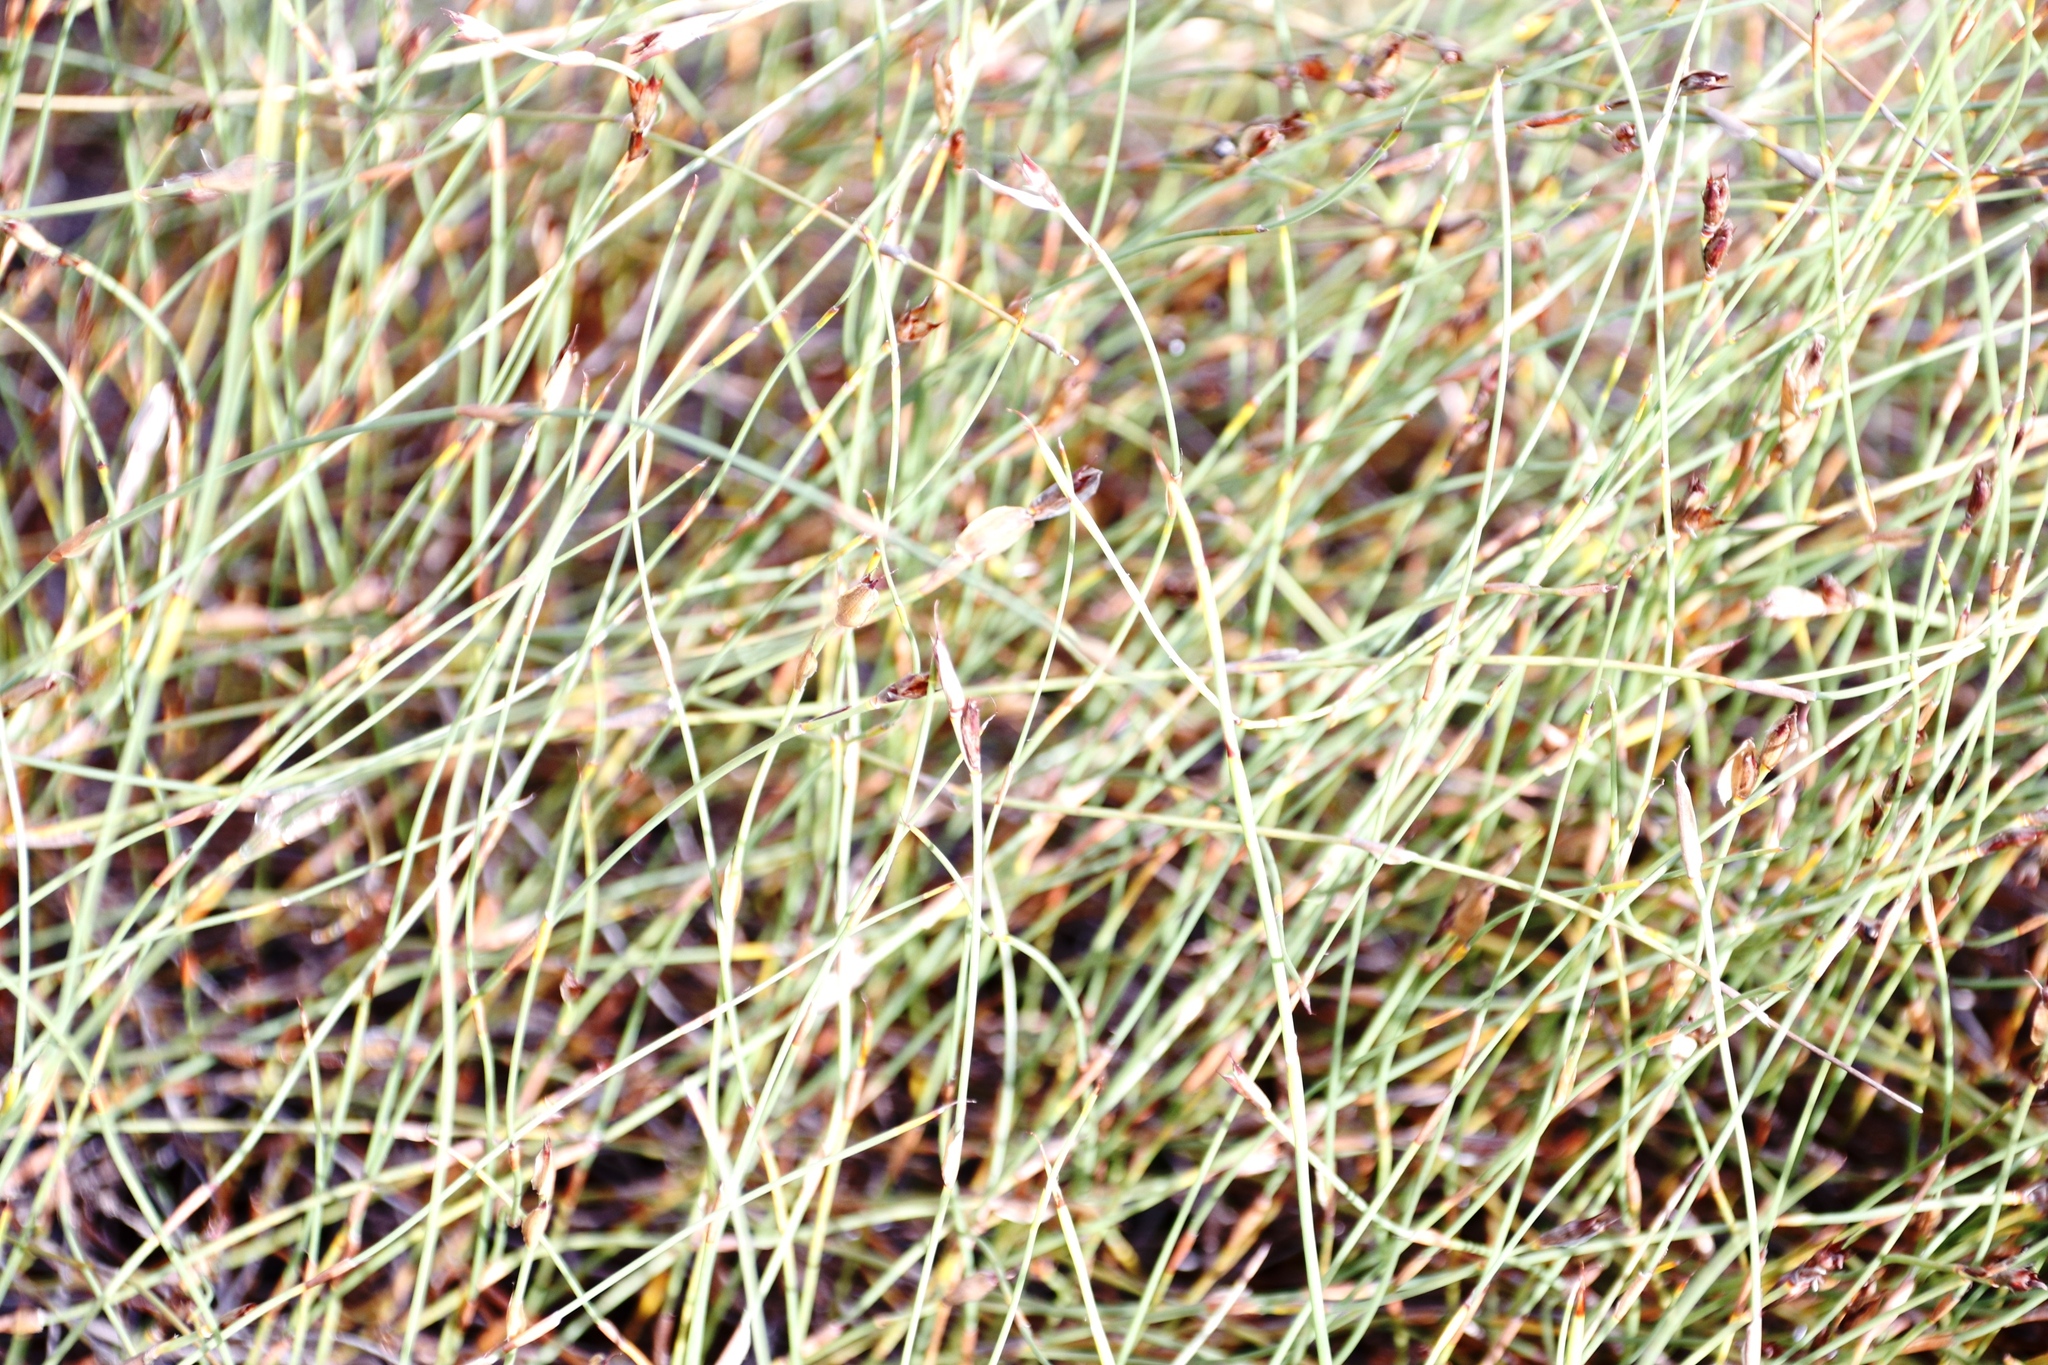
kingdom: Plantae
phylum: Tracheophyta
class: Liliopsida
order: Poales
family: Restionaceae
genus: Willdenowia
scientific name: Willdenowia sulcata
